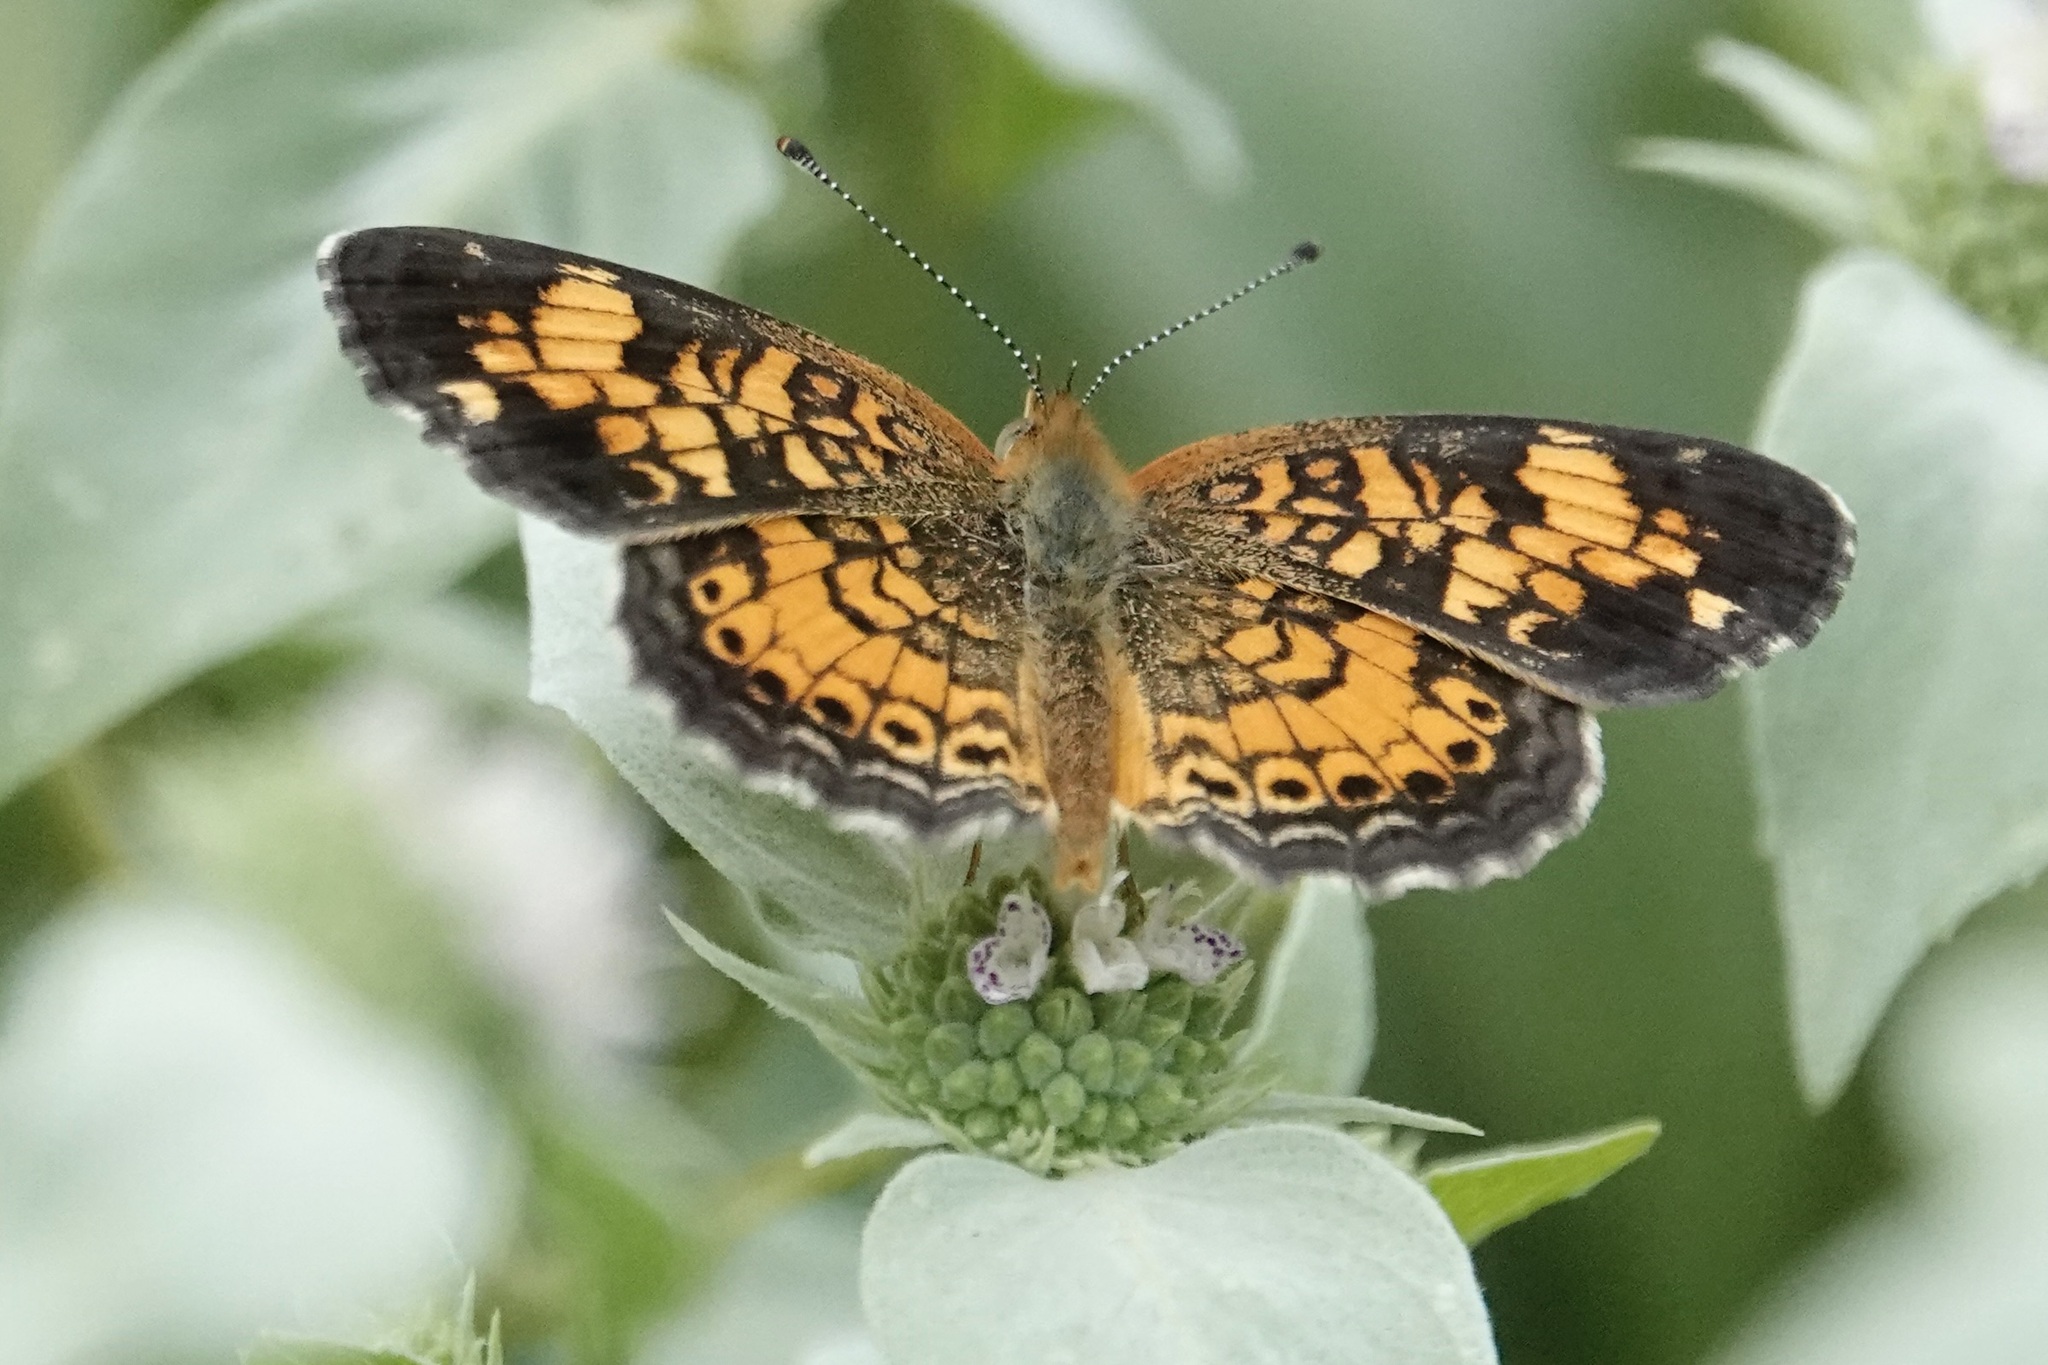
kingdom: Animalia
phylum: Arthropoda
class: Insecta
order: Lepidoptera
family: Nymphalidae
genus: Phyciodes
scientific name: Phyciodes tharos
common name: Pearl crescent
